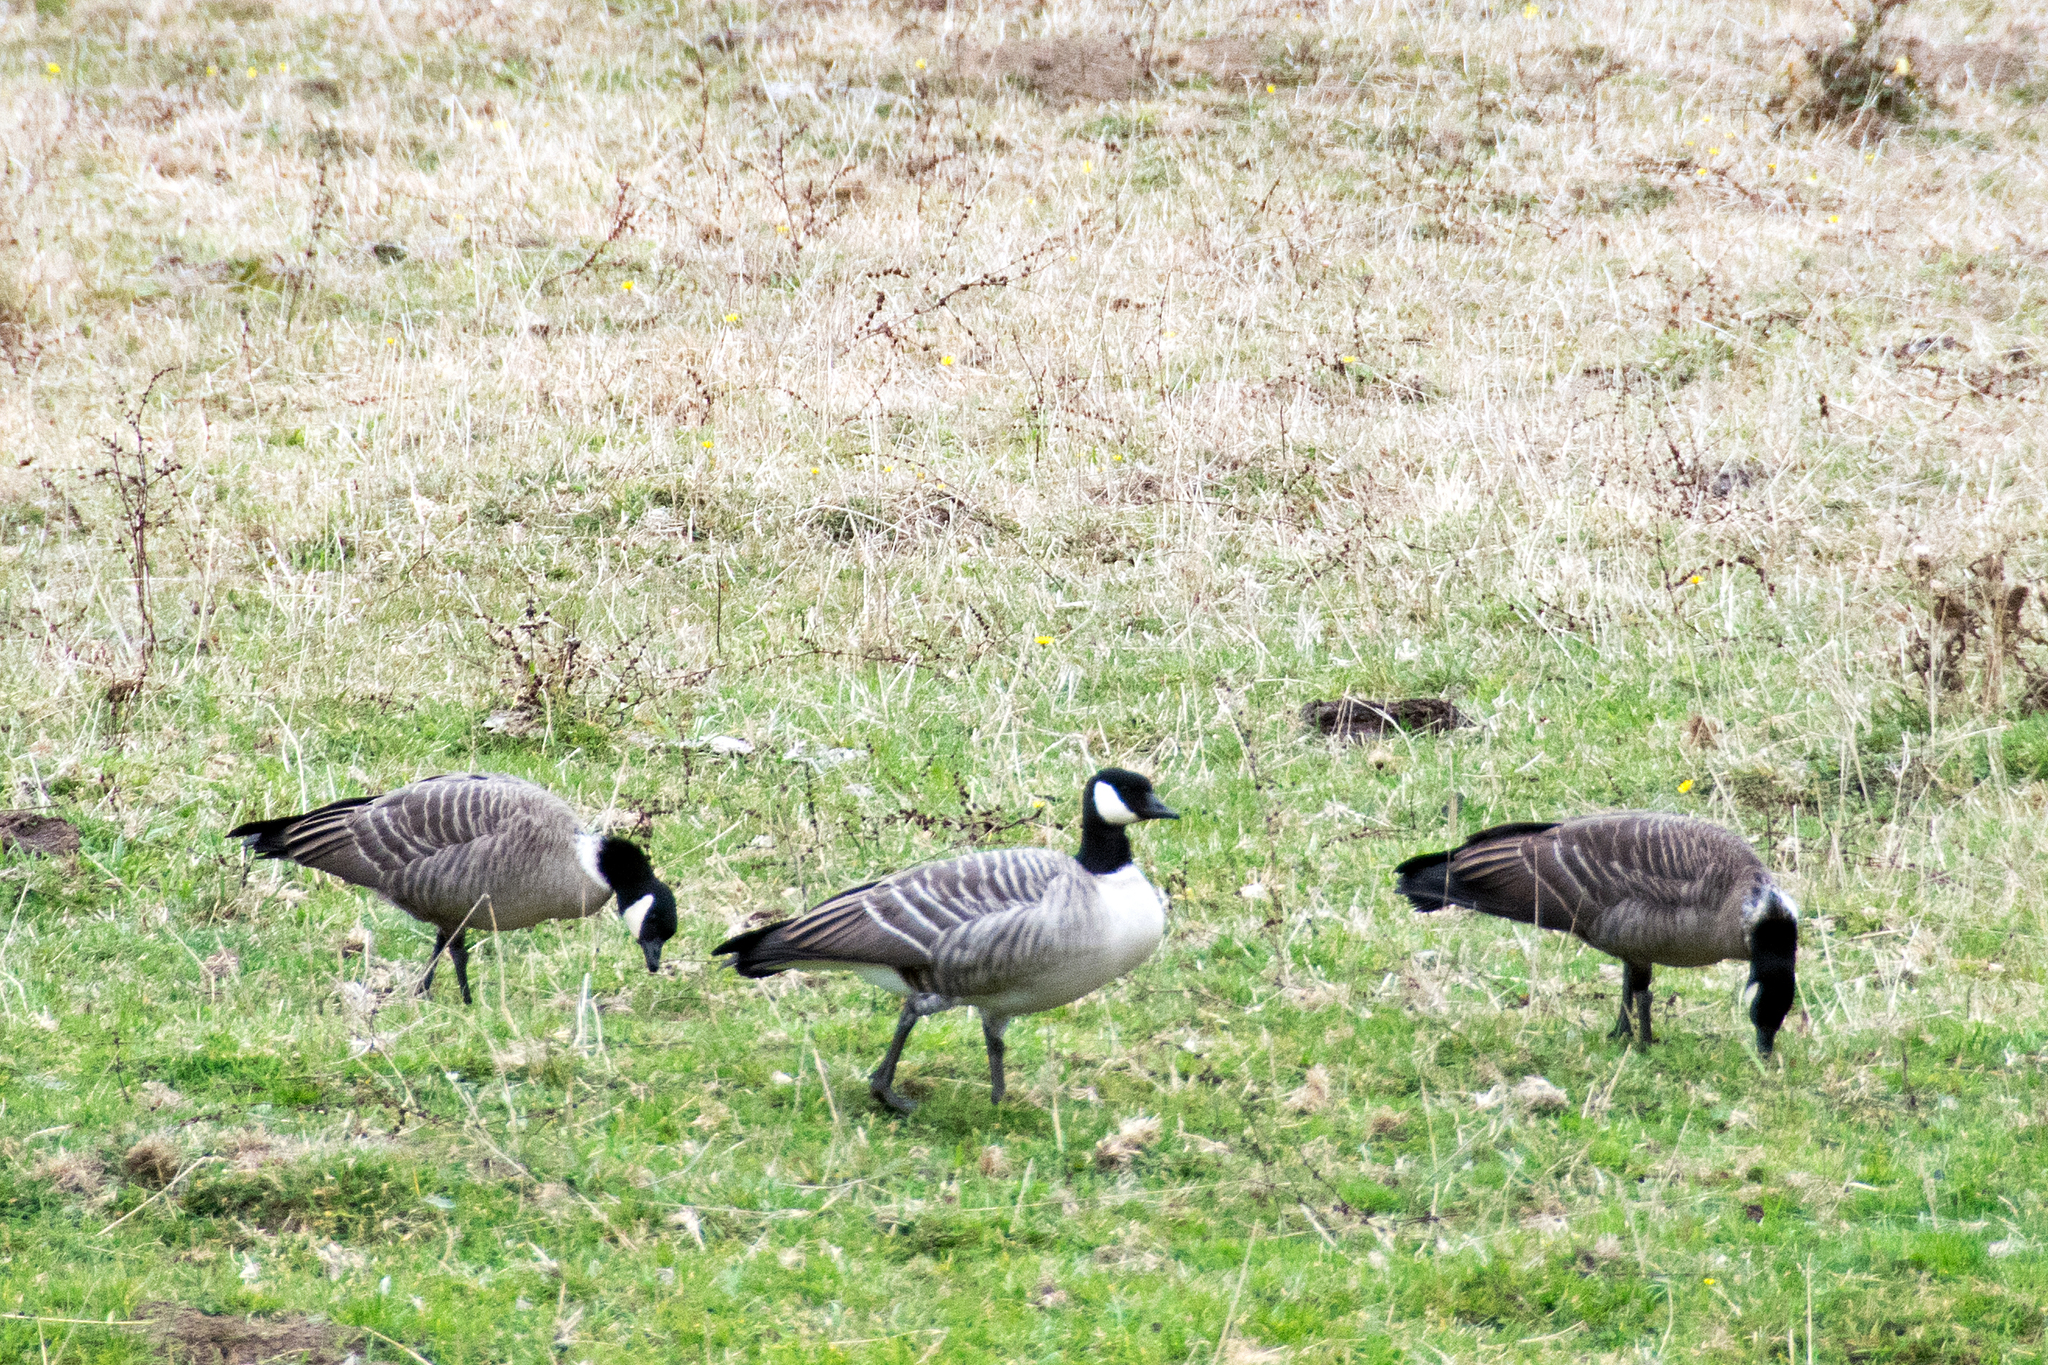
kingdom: Animalia
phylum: Chordata
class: Aves
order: Anseriformes
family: Anatidae
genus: Branta
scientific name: Branta hutchinsii
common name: Cackling goose
